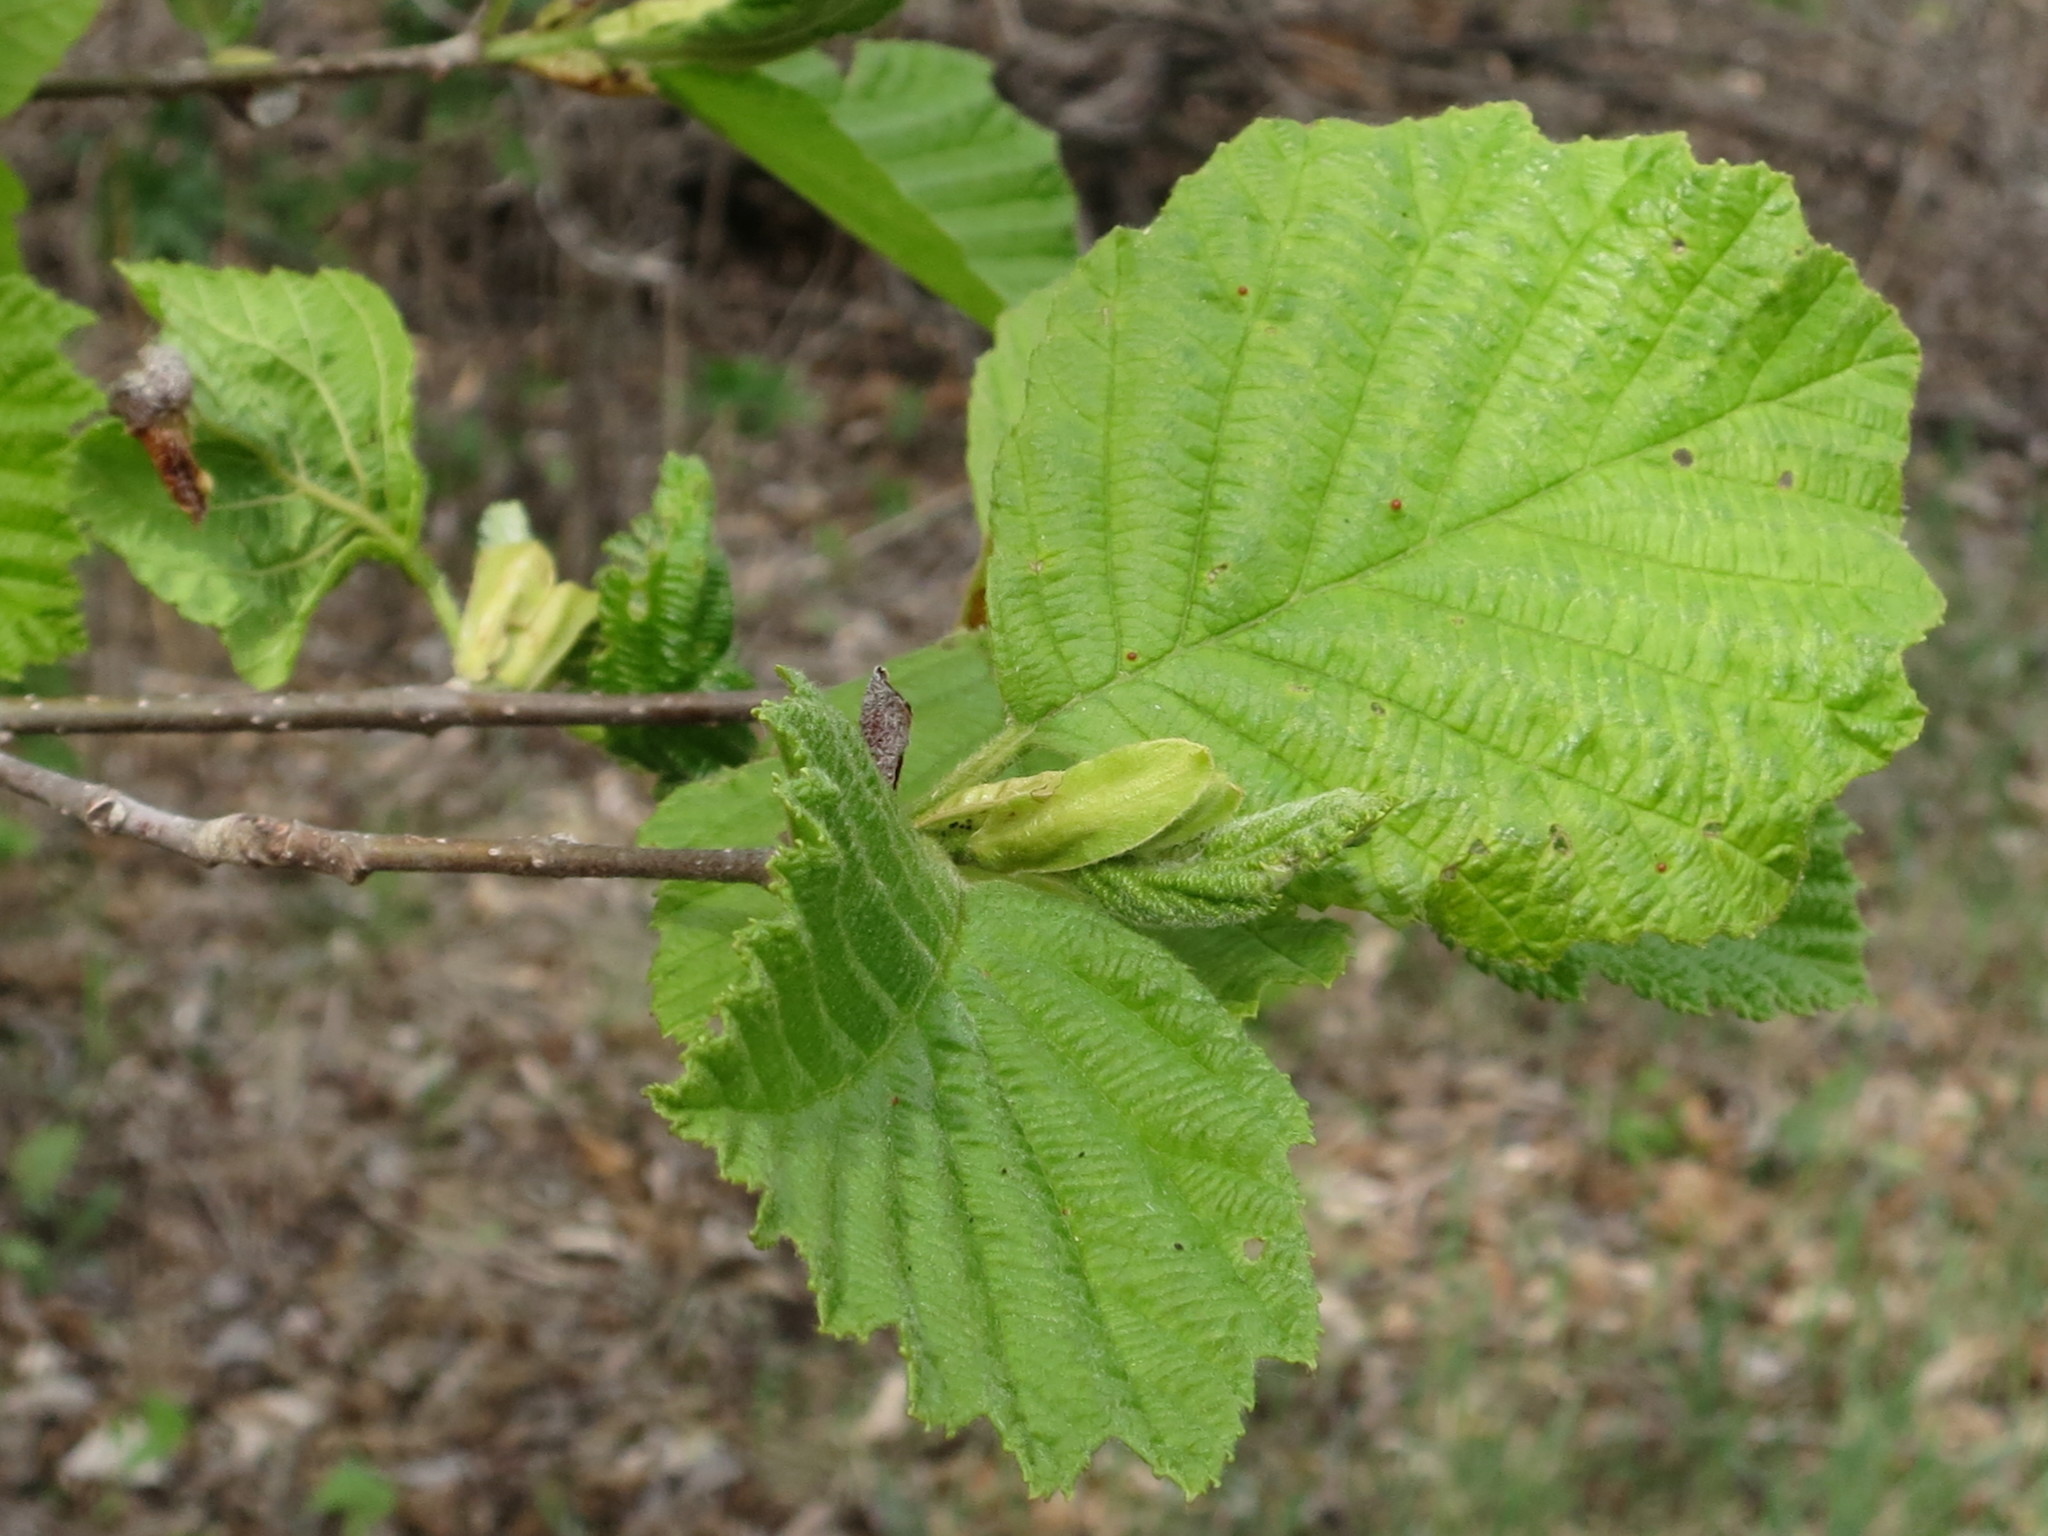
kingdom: Plantae
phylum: Tracheophyta
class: Magnoliopsida
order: Fagales
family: Betulaceae
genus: Alnus
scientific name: Alnus hirsuta
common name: Manchurian alder
